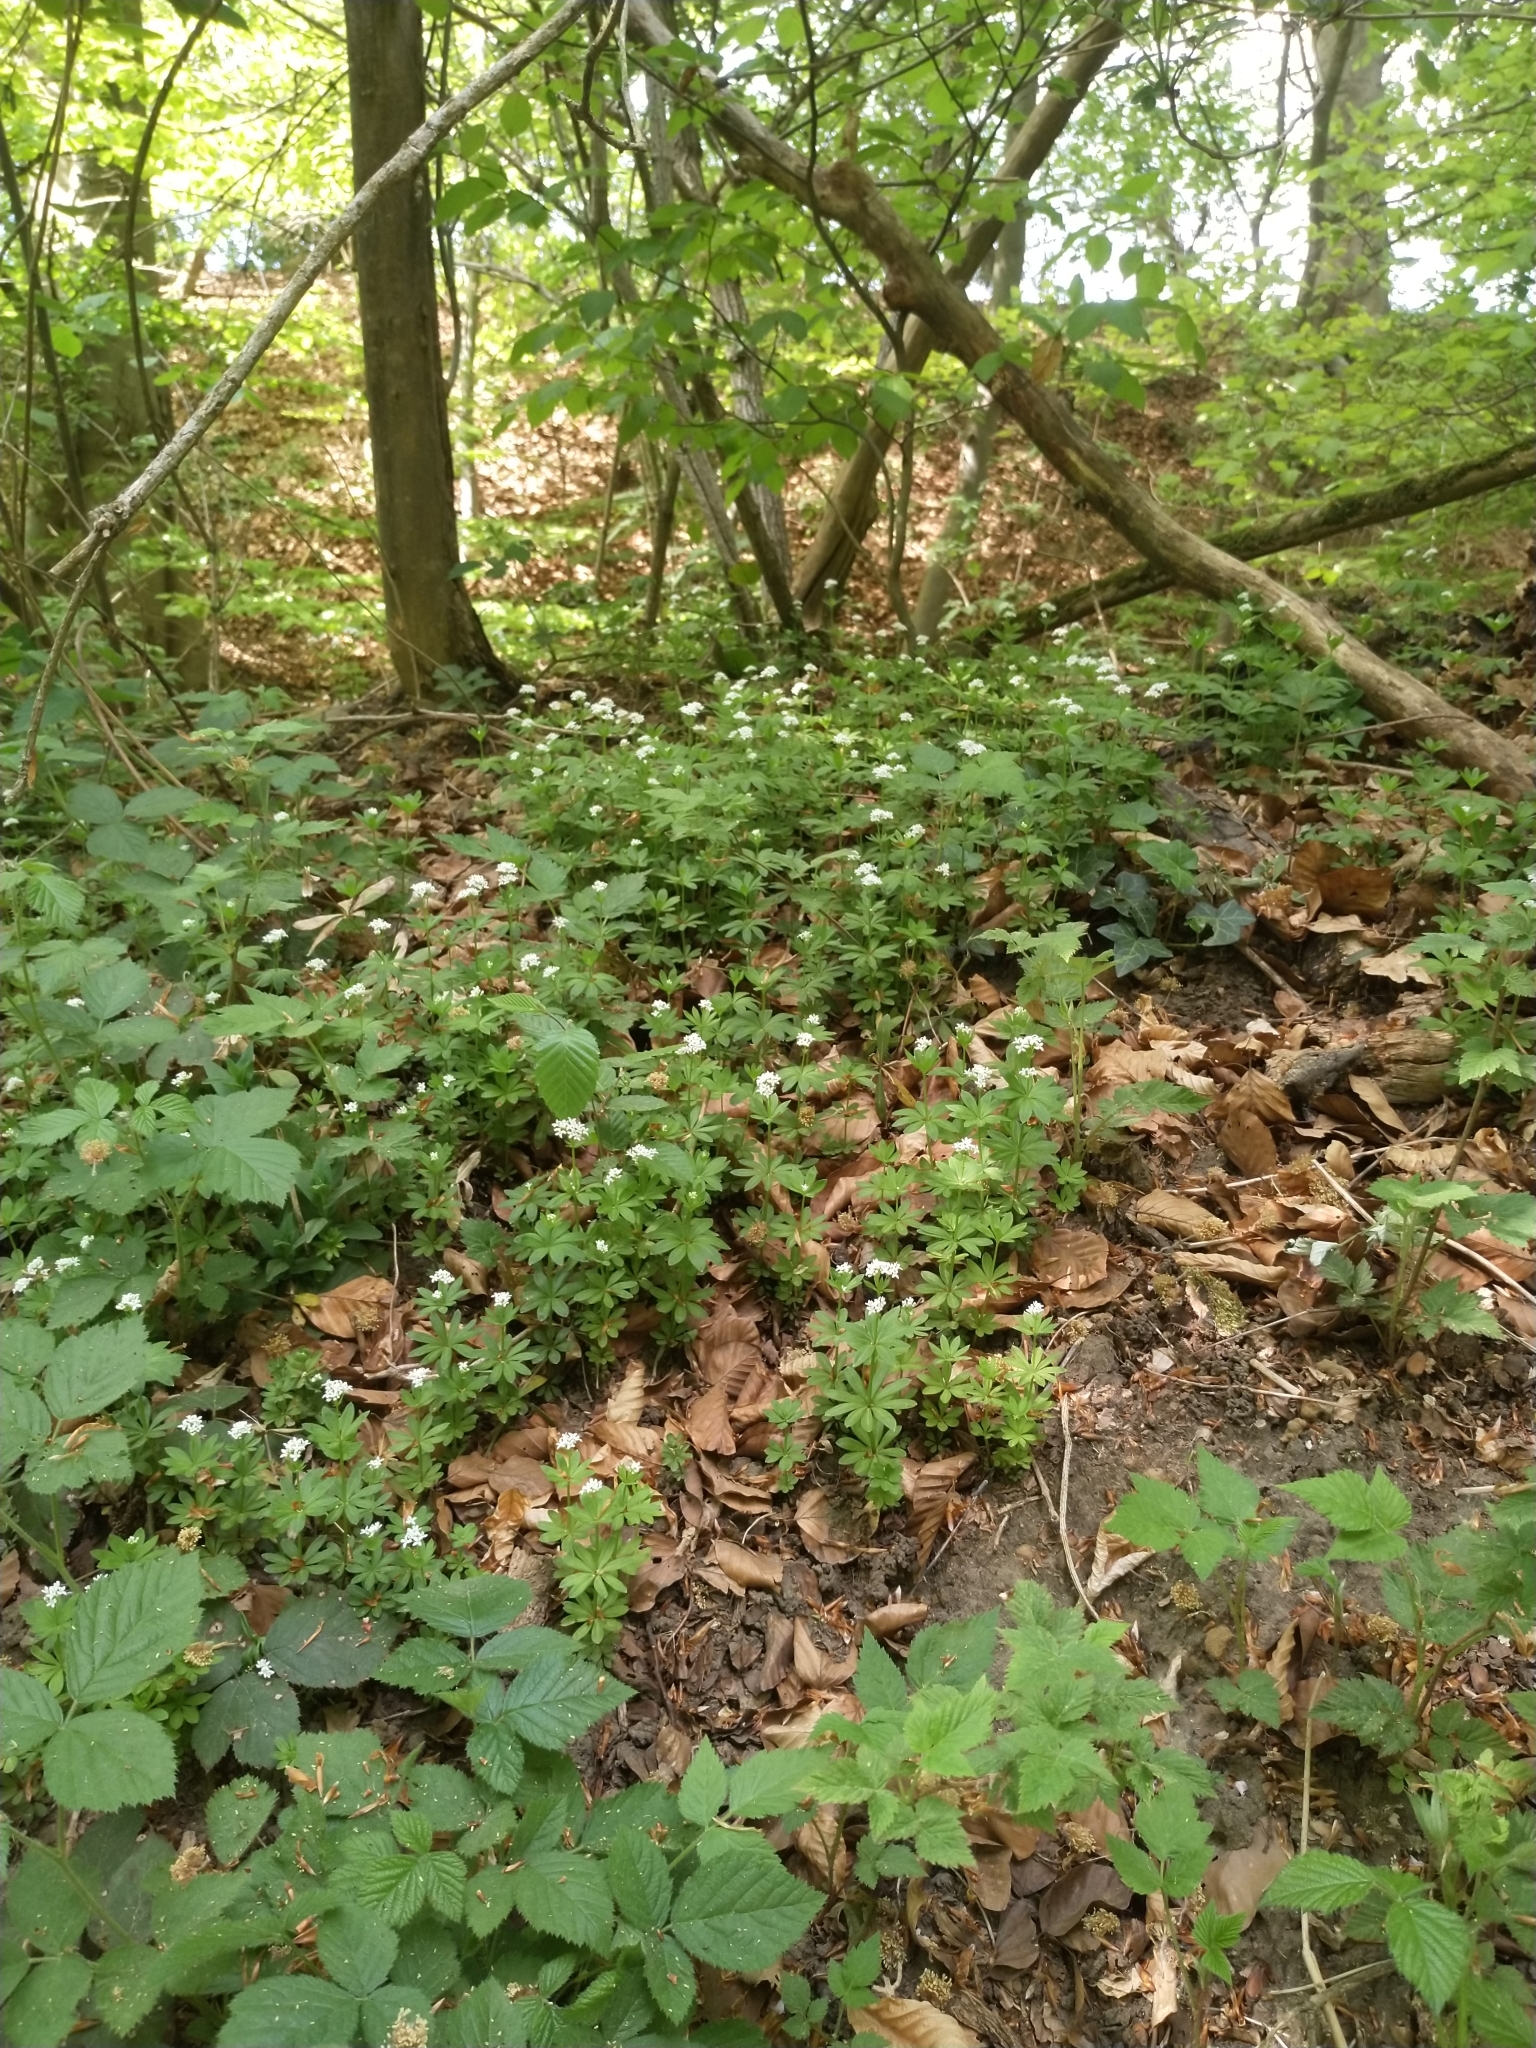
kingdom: Plantae
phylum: Tracheophyta
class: Magnoliopsida
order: Gentianales
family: Rubiaceae
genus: Galium
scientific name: Galium odoratum
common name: Sweet woodruff
